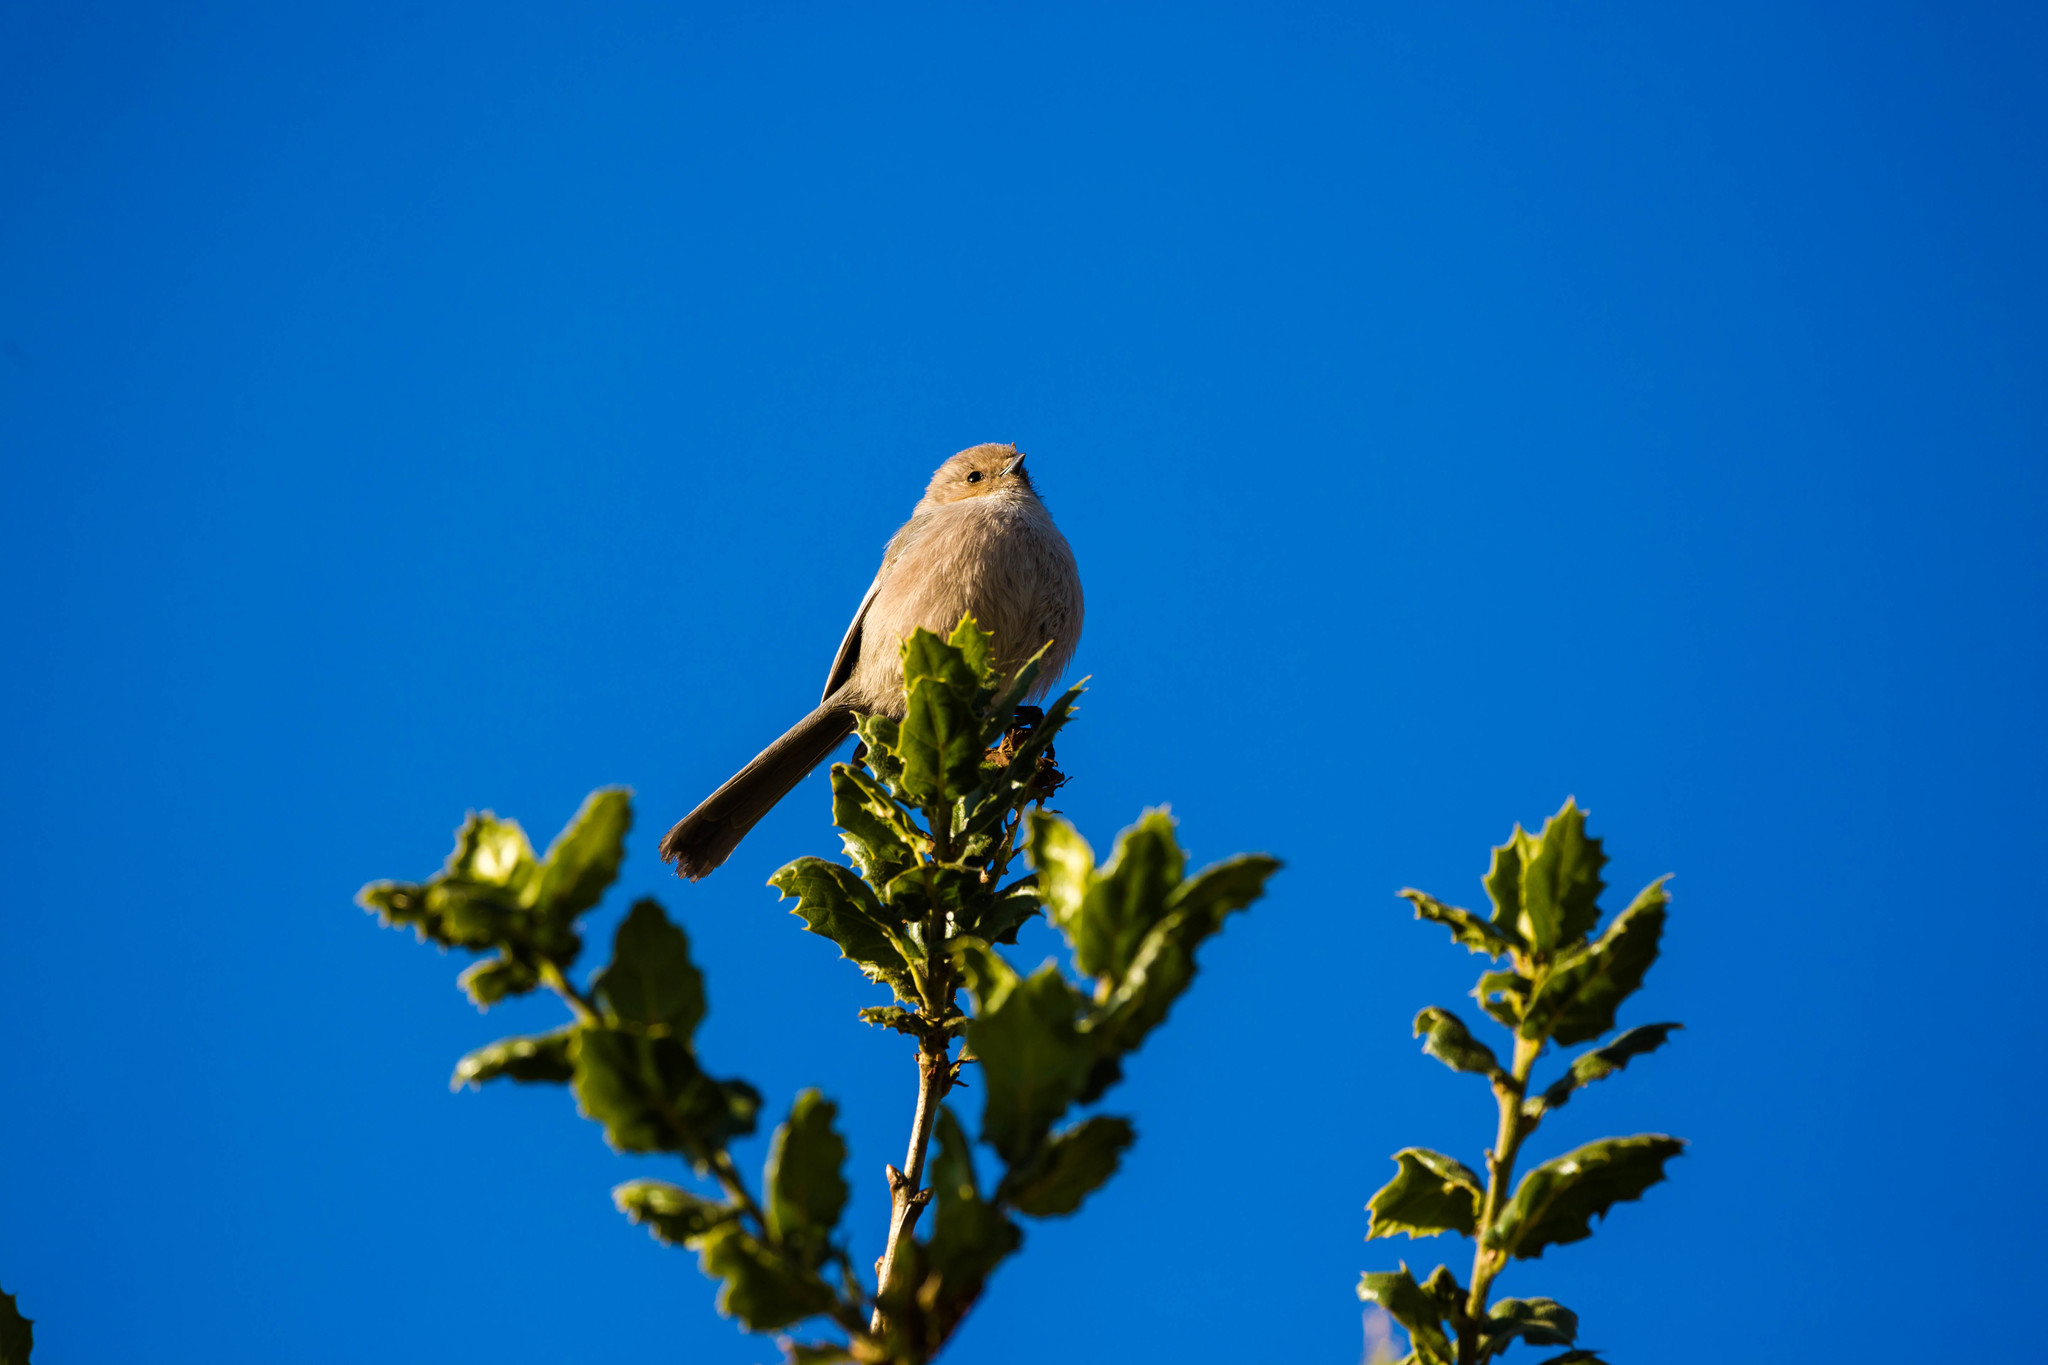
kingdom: Animalia
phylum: Chordata
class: Aves
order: Passeriformes
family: Aegithalidae
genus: Psaltriparus
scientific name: Psaltriparus minimus
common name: American bushtit
